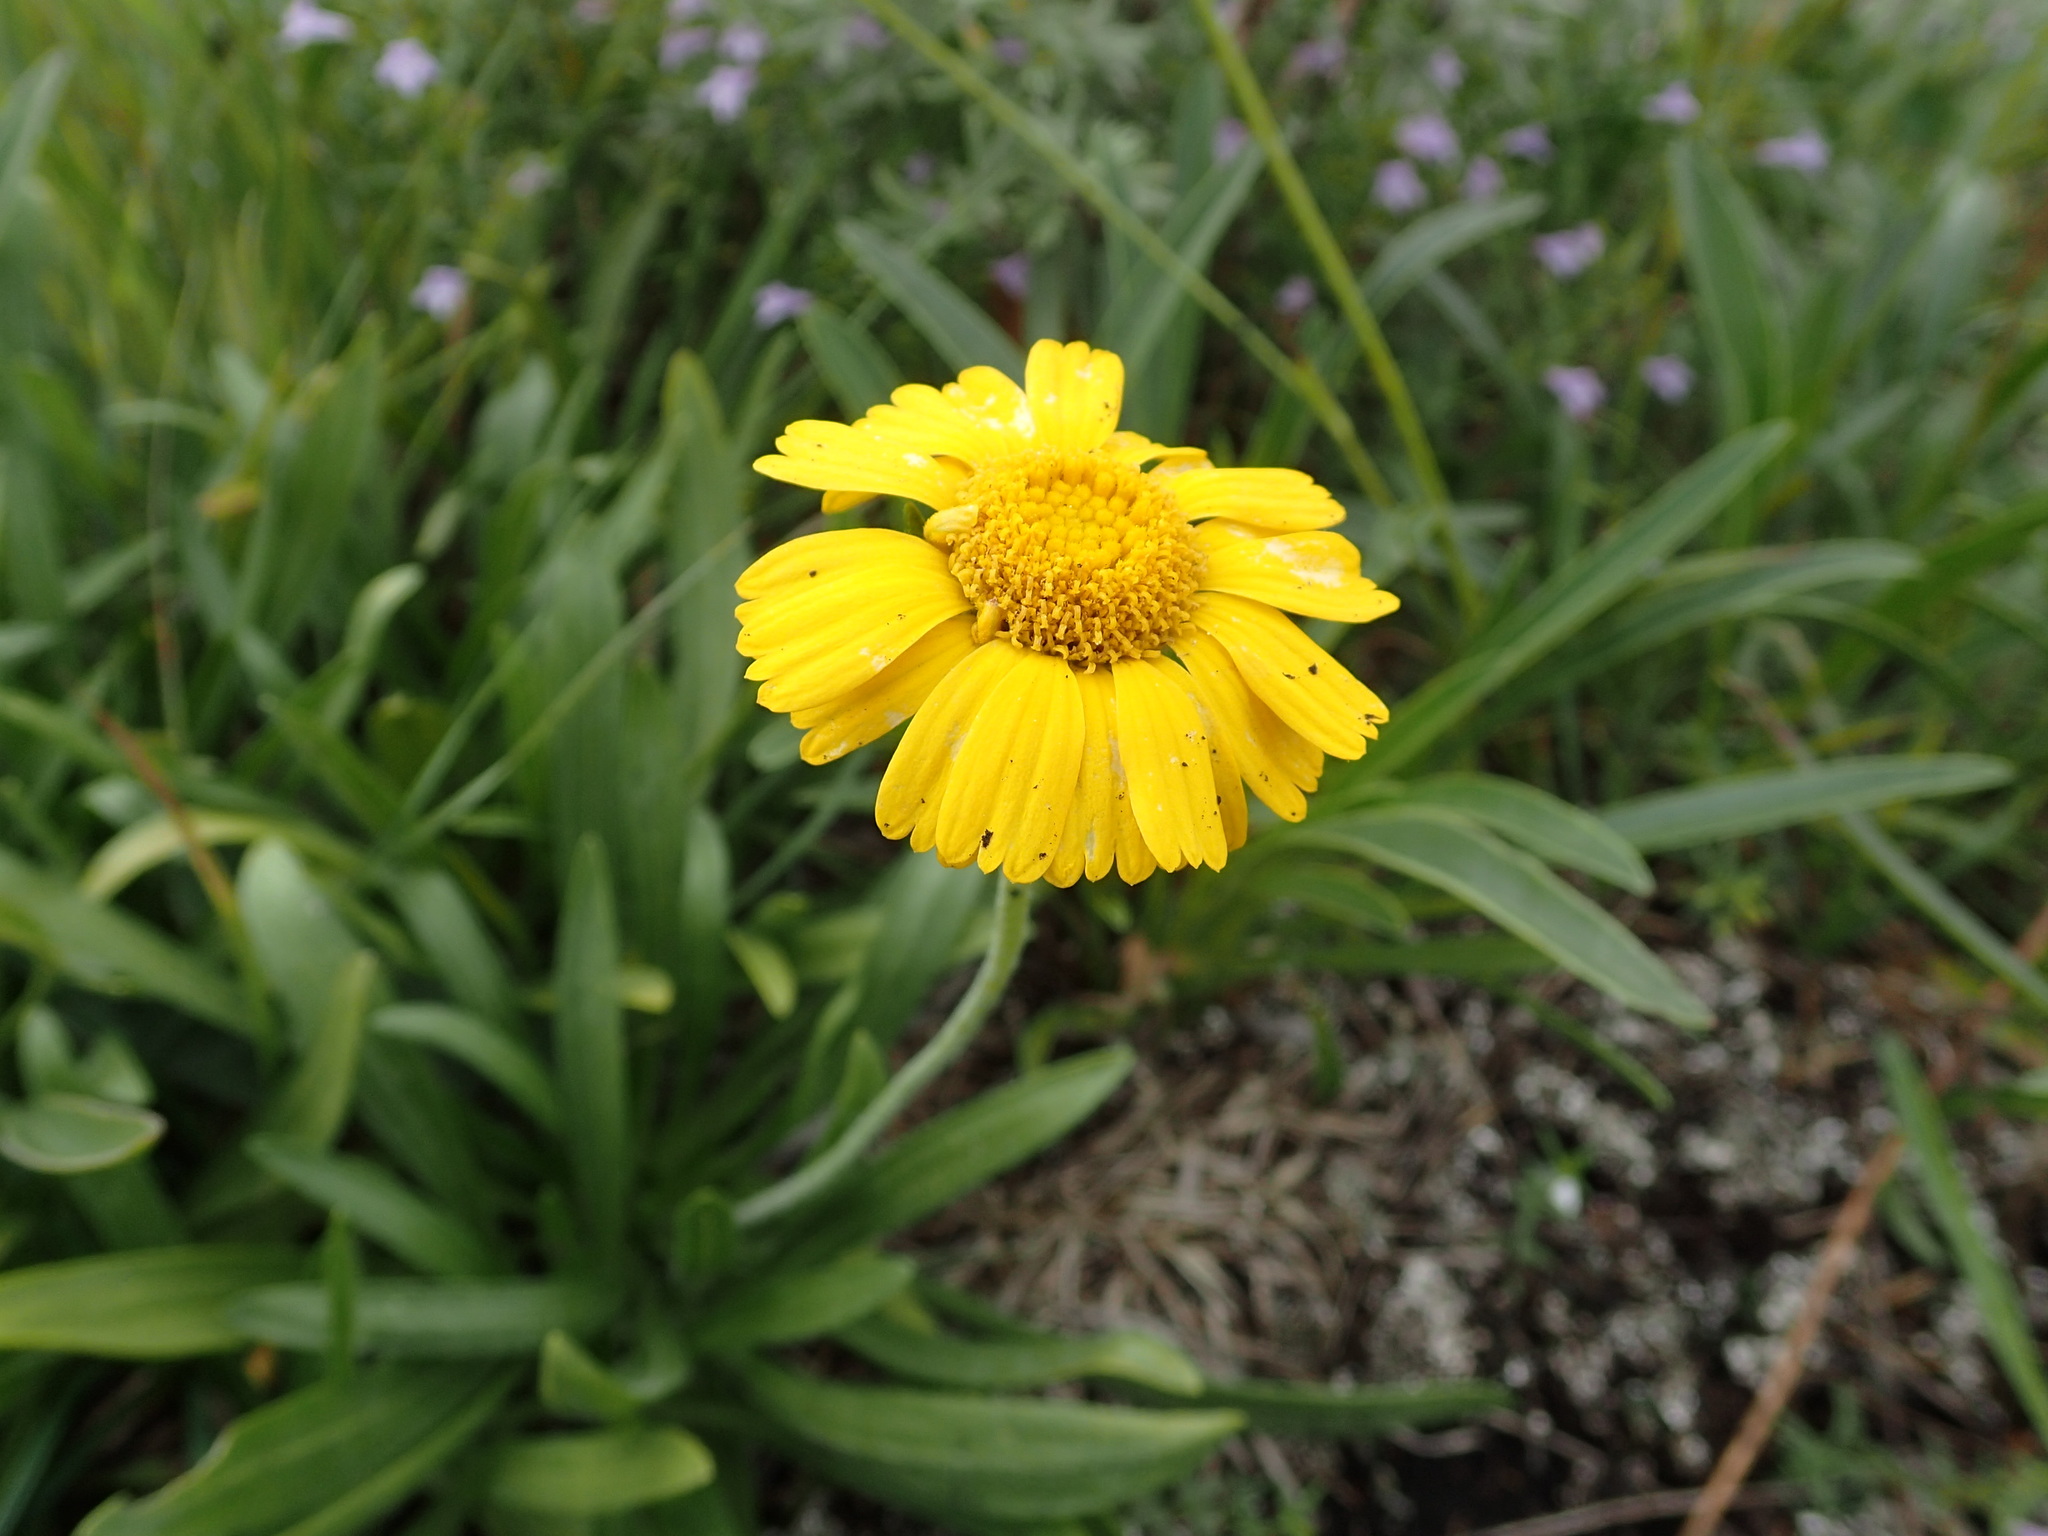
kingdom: Plantae
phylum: Tracheophyta
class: Magnoliopsida
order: Asterales
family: Asteraceae
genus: Tetraneuris
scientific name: Tetraneuris herbacea
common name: Lakeside daisy
